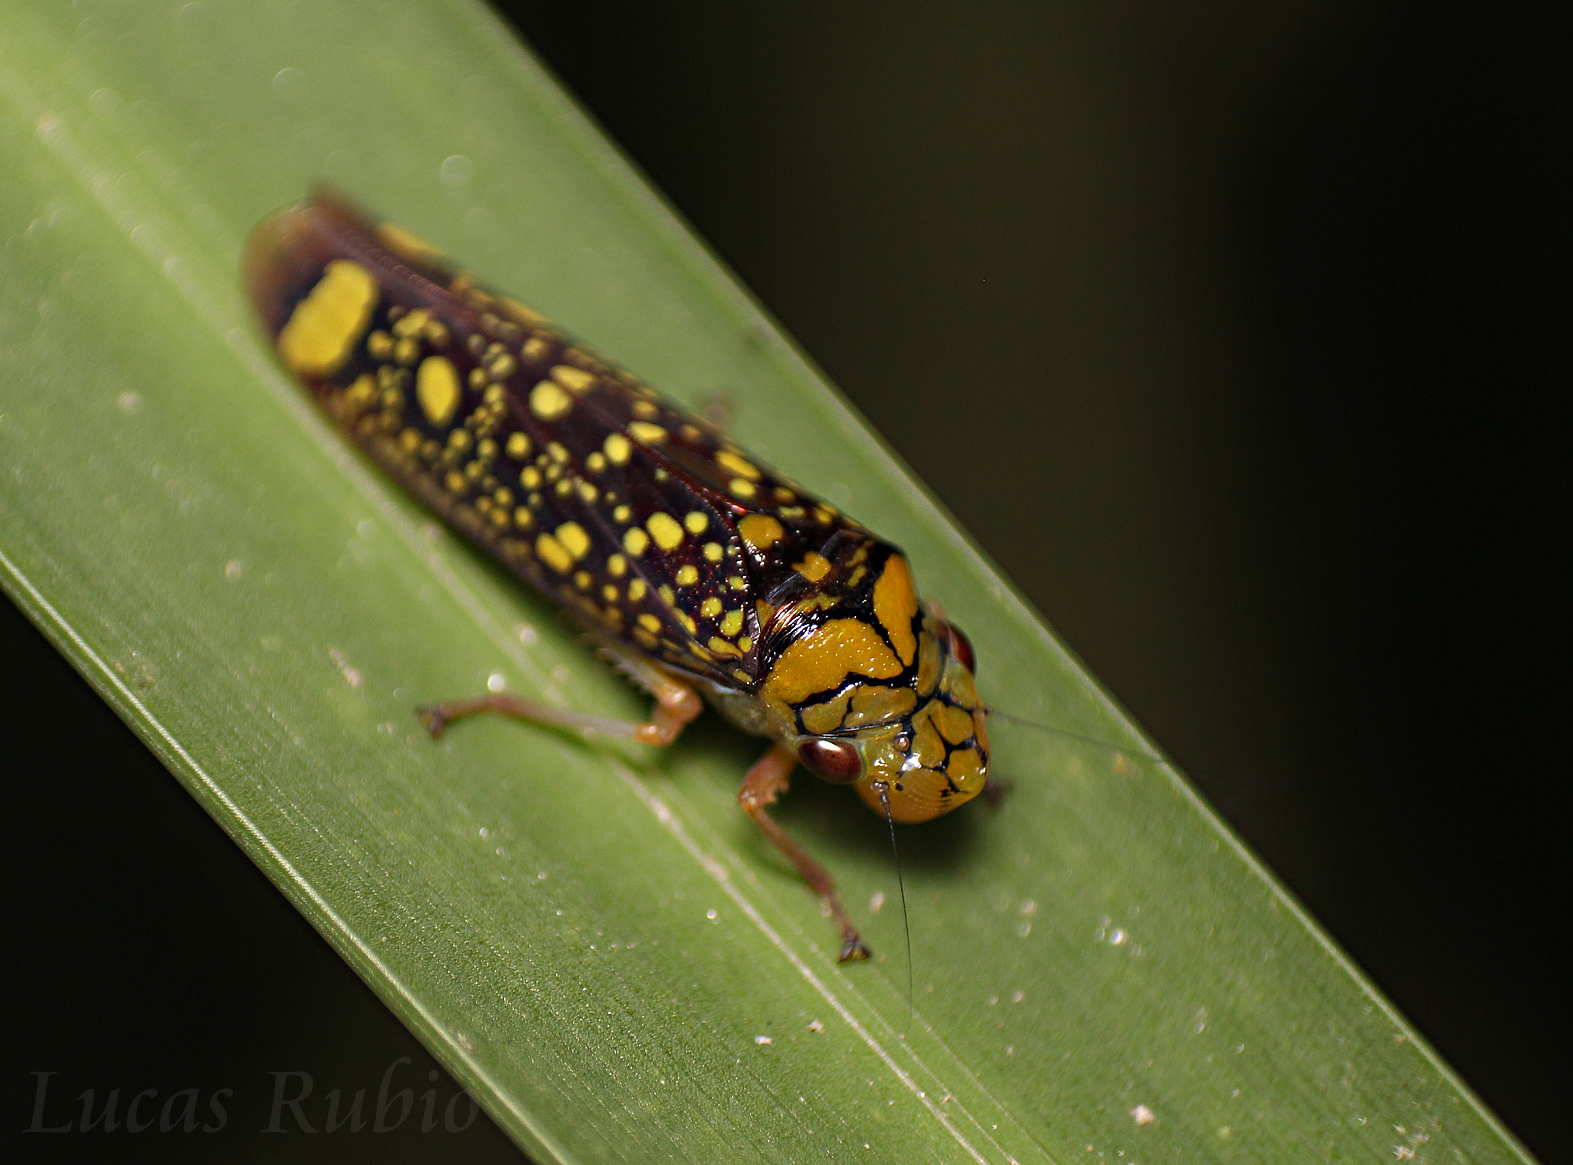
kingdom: Animalia
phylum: Arthropoda
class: Insecta
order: Hemiptera
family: Cicadellidae
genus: Aulacizes
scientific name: Aulacizes conspersa
